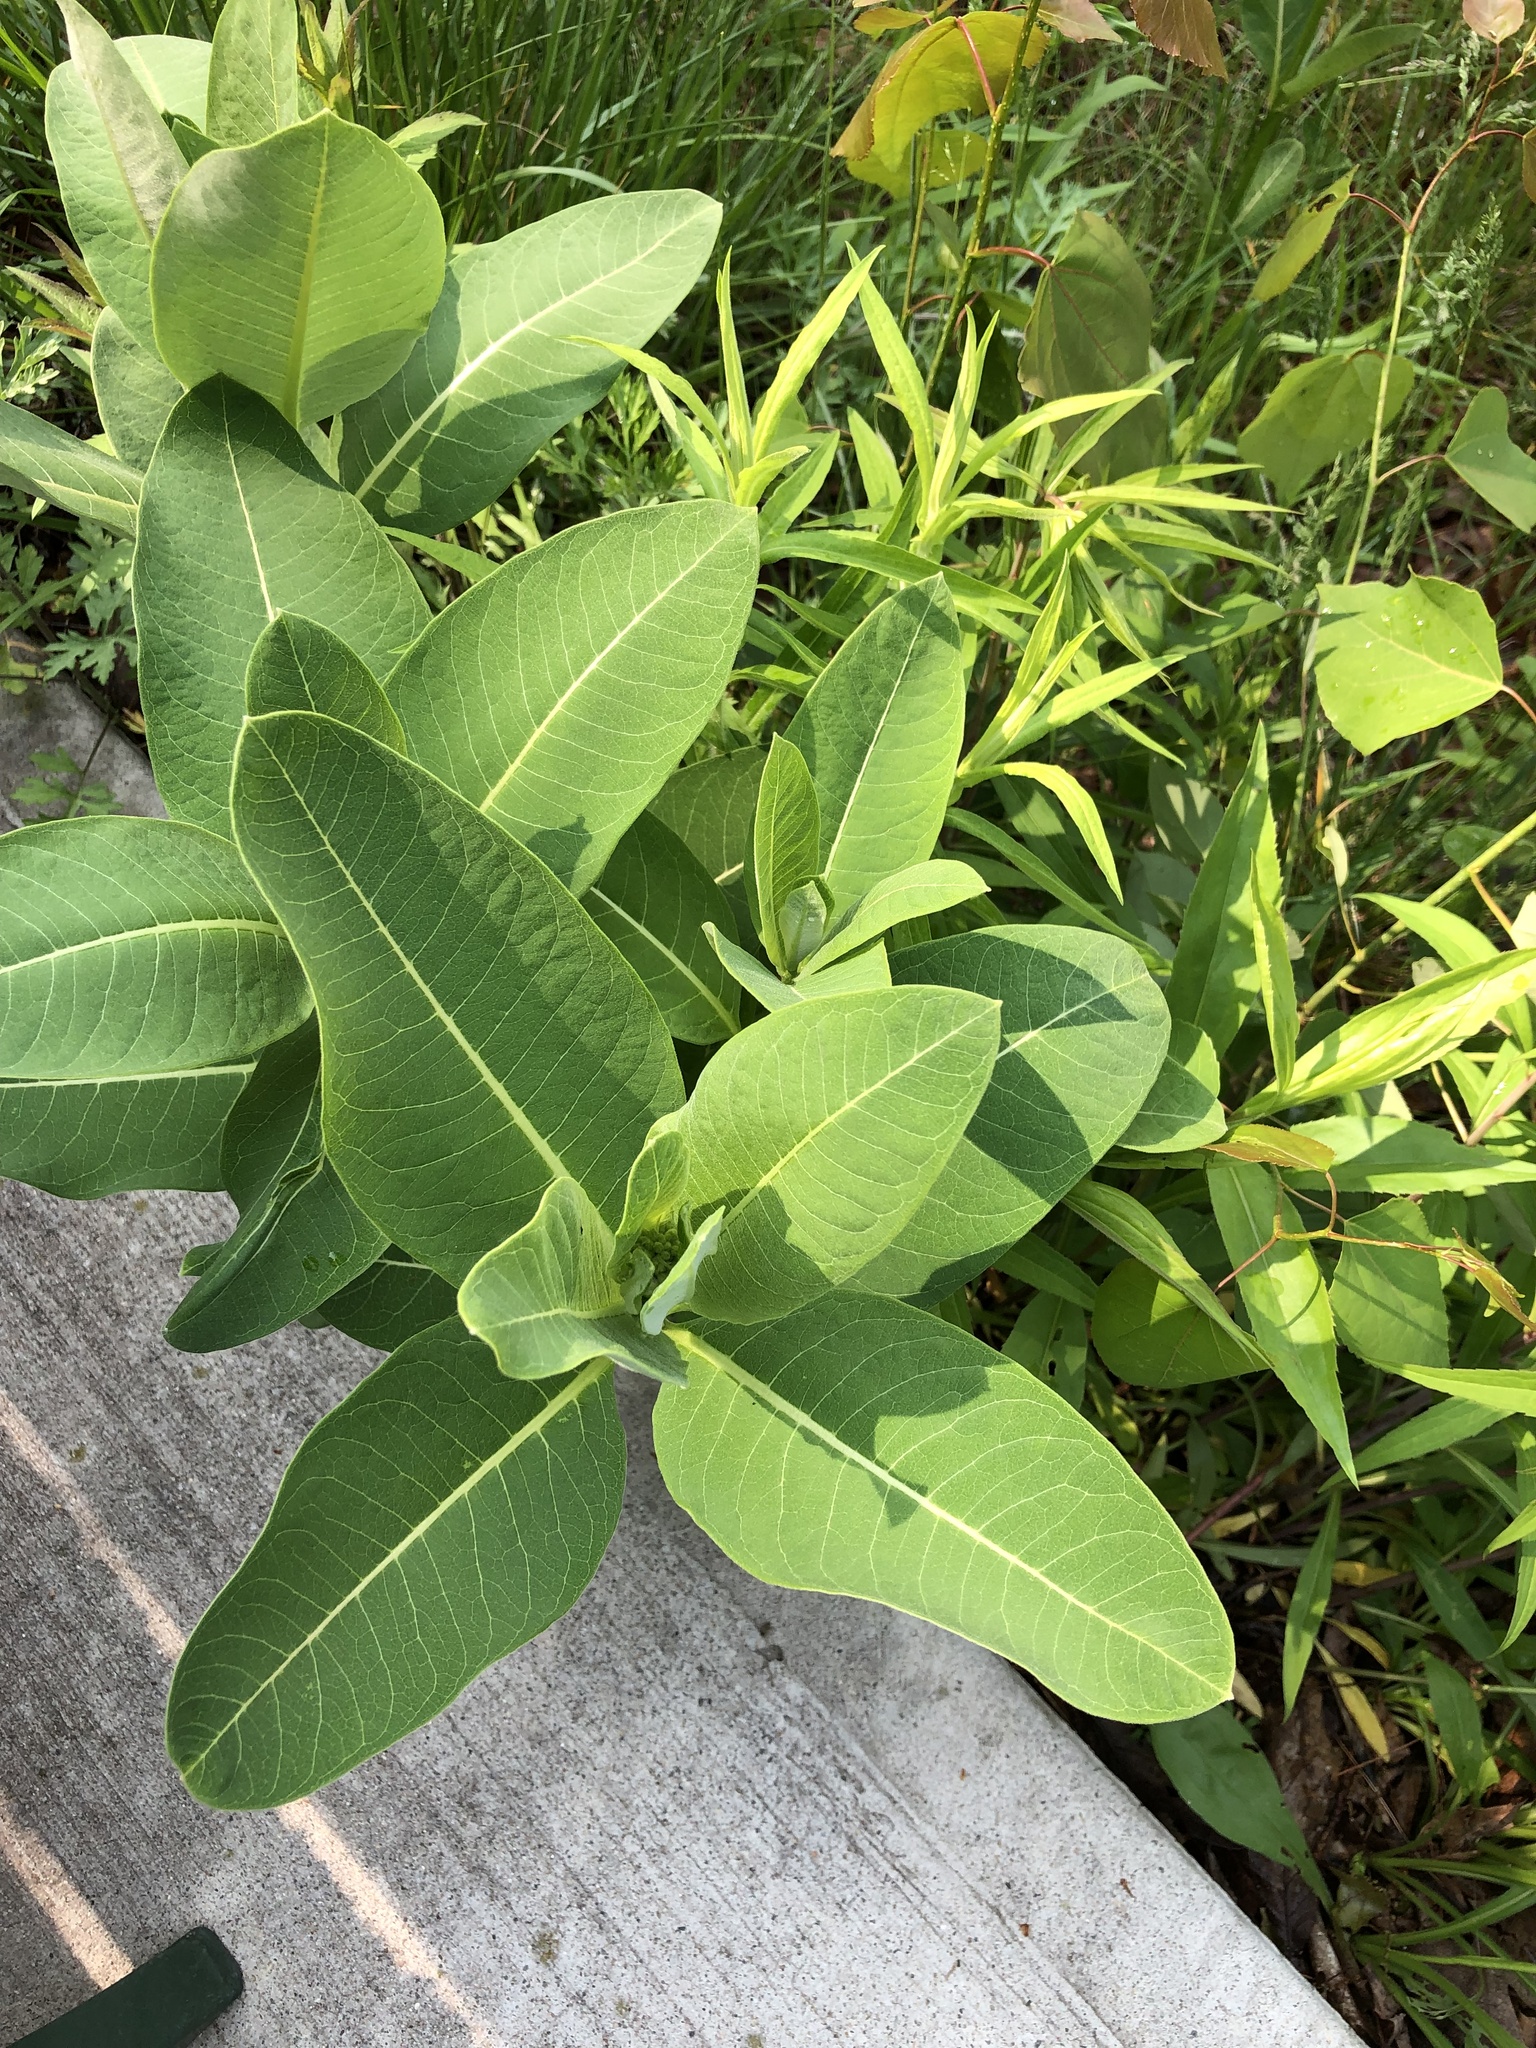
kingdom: Plantae
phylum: Tracheophyta
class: Magnoliopsida
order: Gentianales
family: Apocynaceae
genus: Asclepias
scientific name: Asclepias syriaca
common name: Common milkweed
